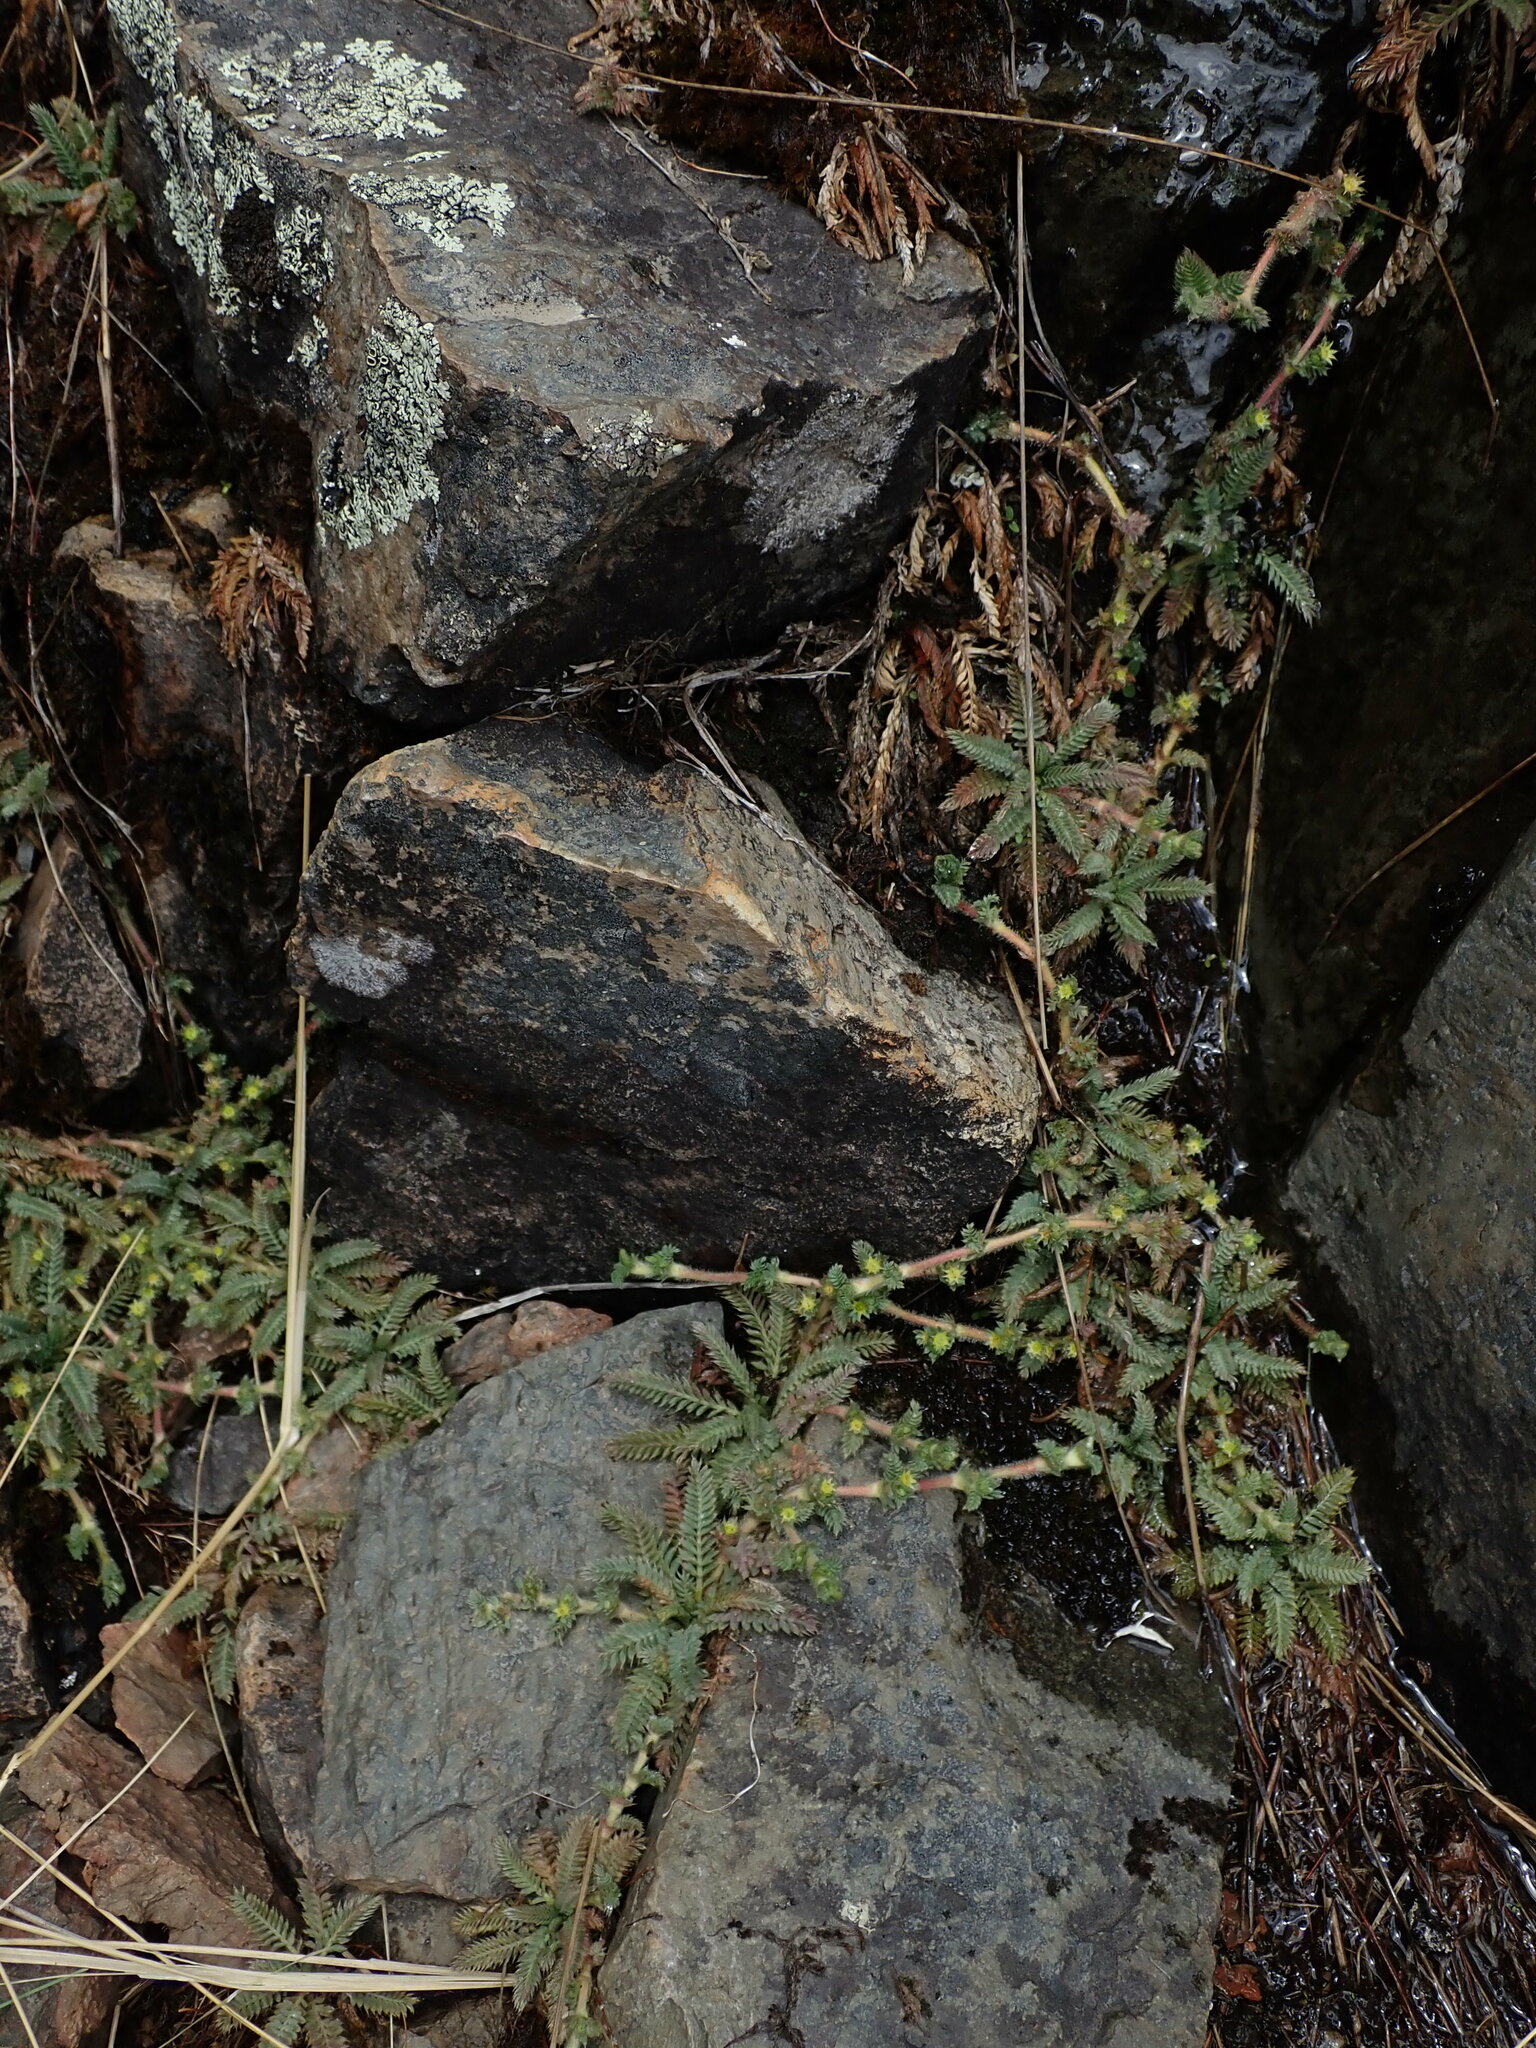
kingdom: Plantae
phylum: Tracheophyta
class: Magnoliopsida
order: Rosales
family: Rosaceae
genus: Lachemilla
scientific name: Lachemilla
